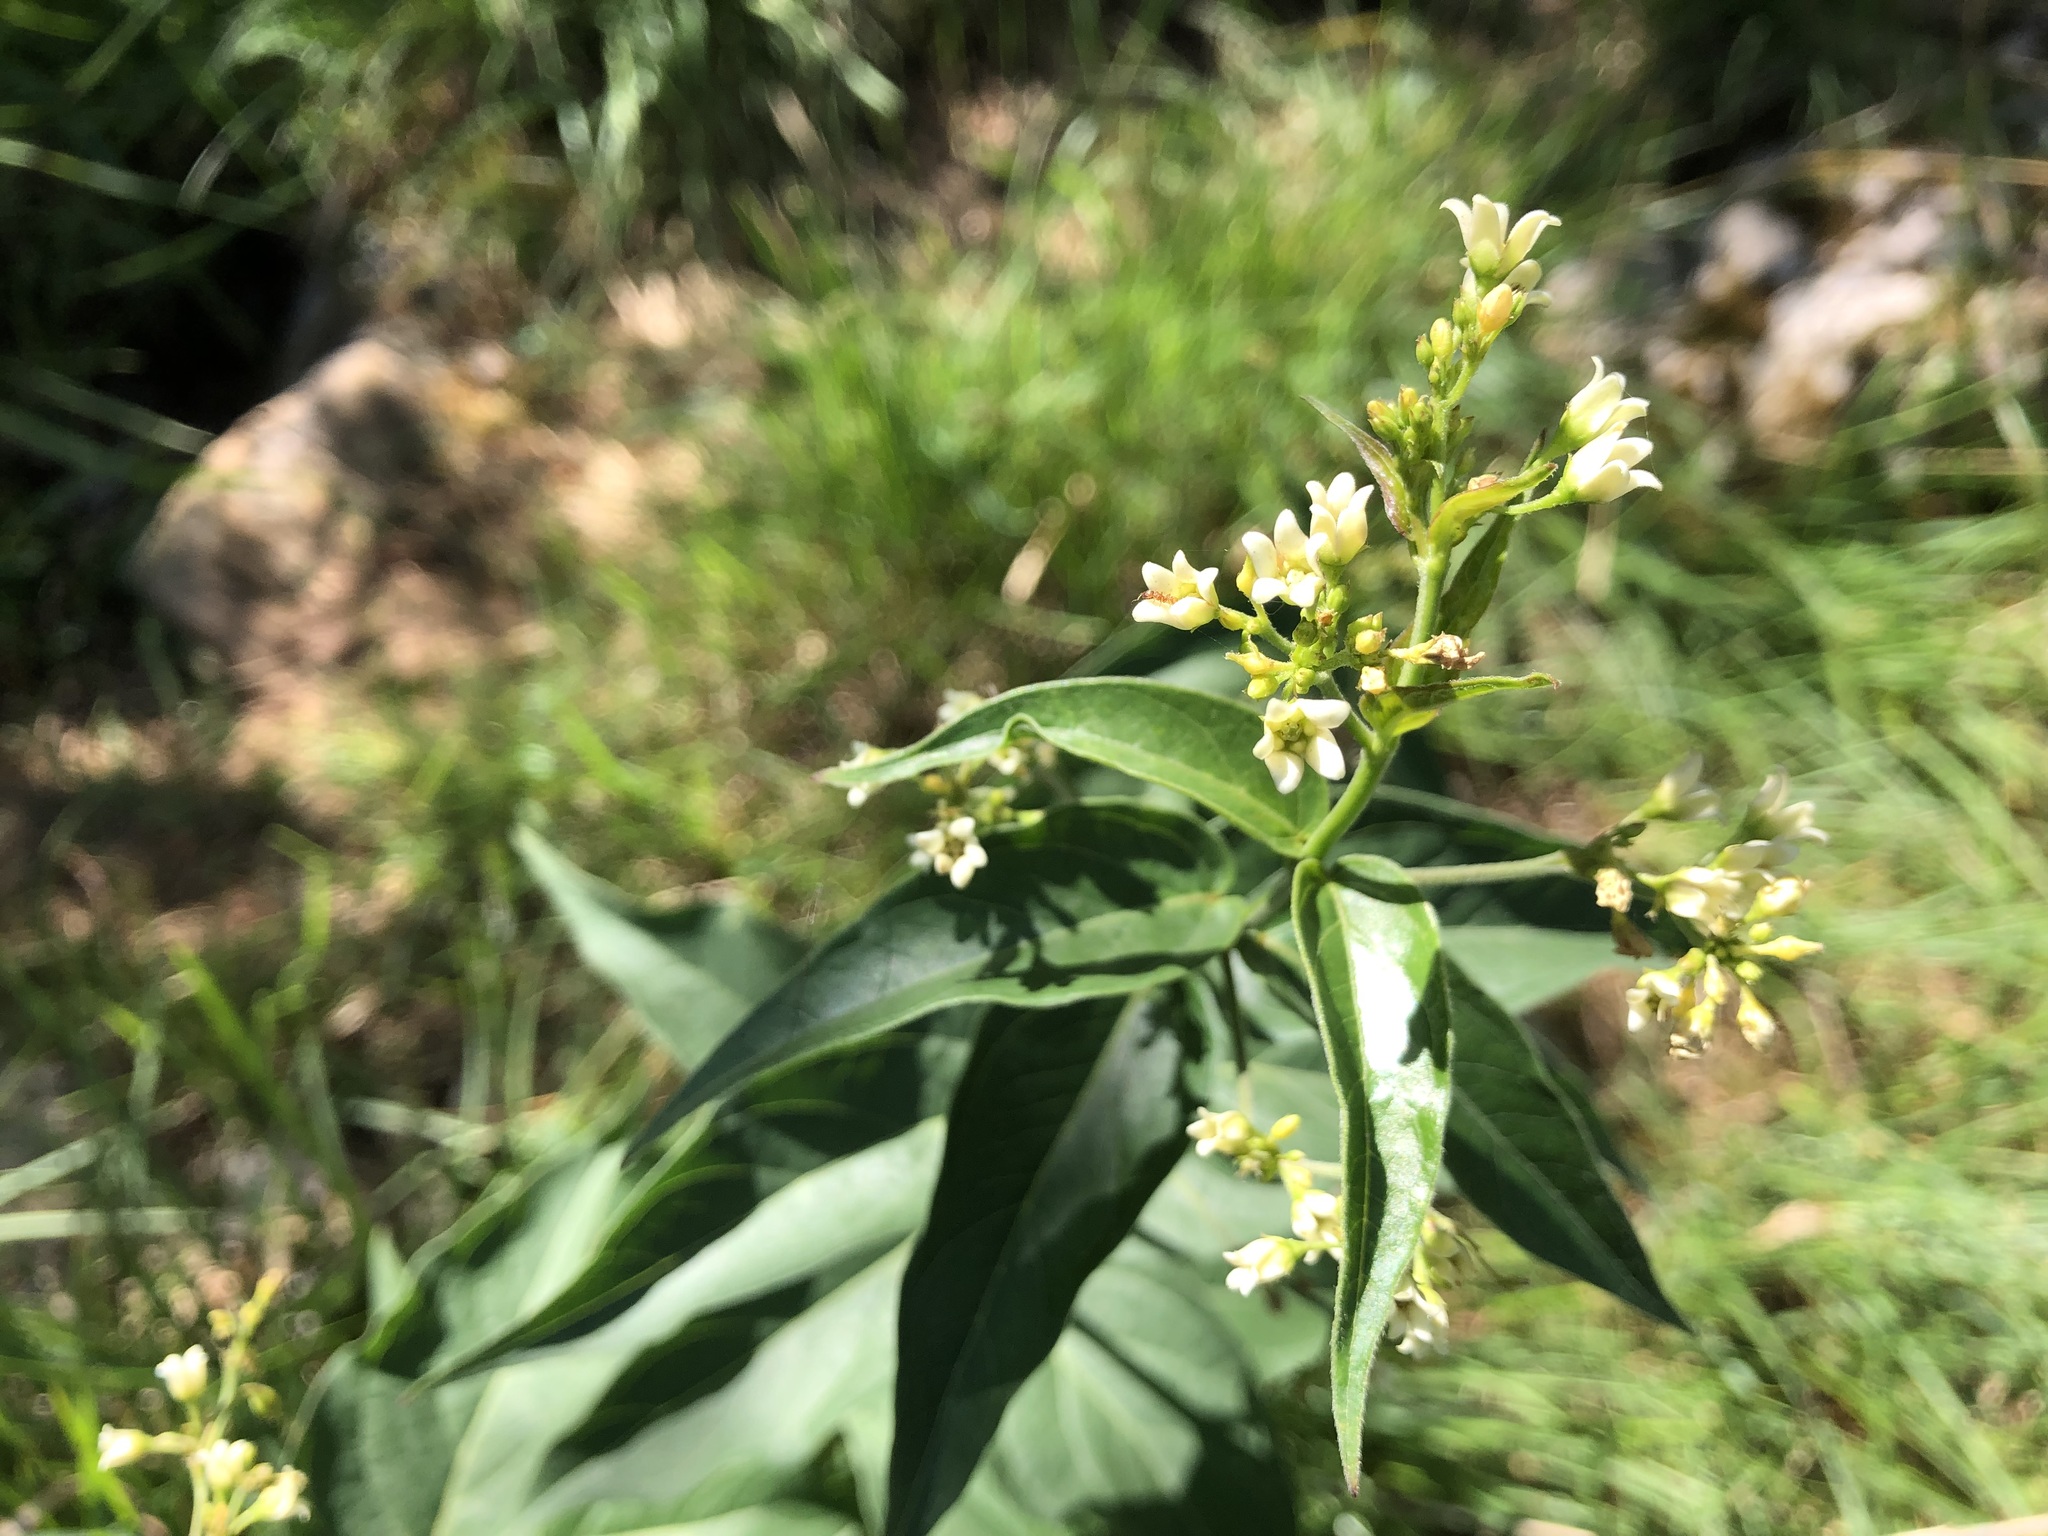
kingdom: Plantae
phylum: Tracheophyta
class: Magnoliopsida
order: Gentianales
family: Apocynaceae
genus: Vincetoxicum
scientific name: Vincetoxicum hirundinaria
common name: White swallowwort
